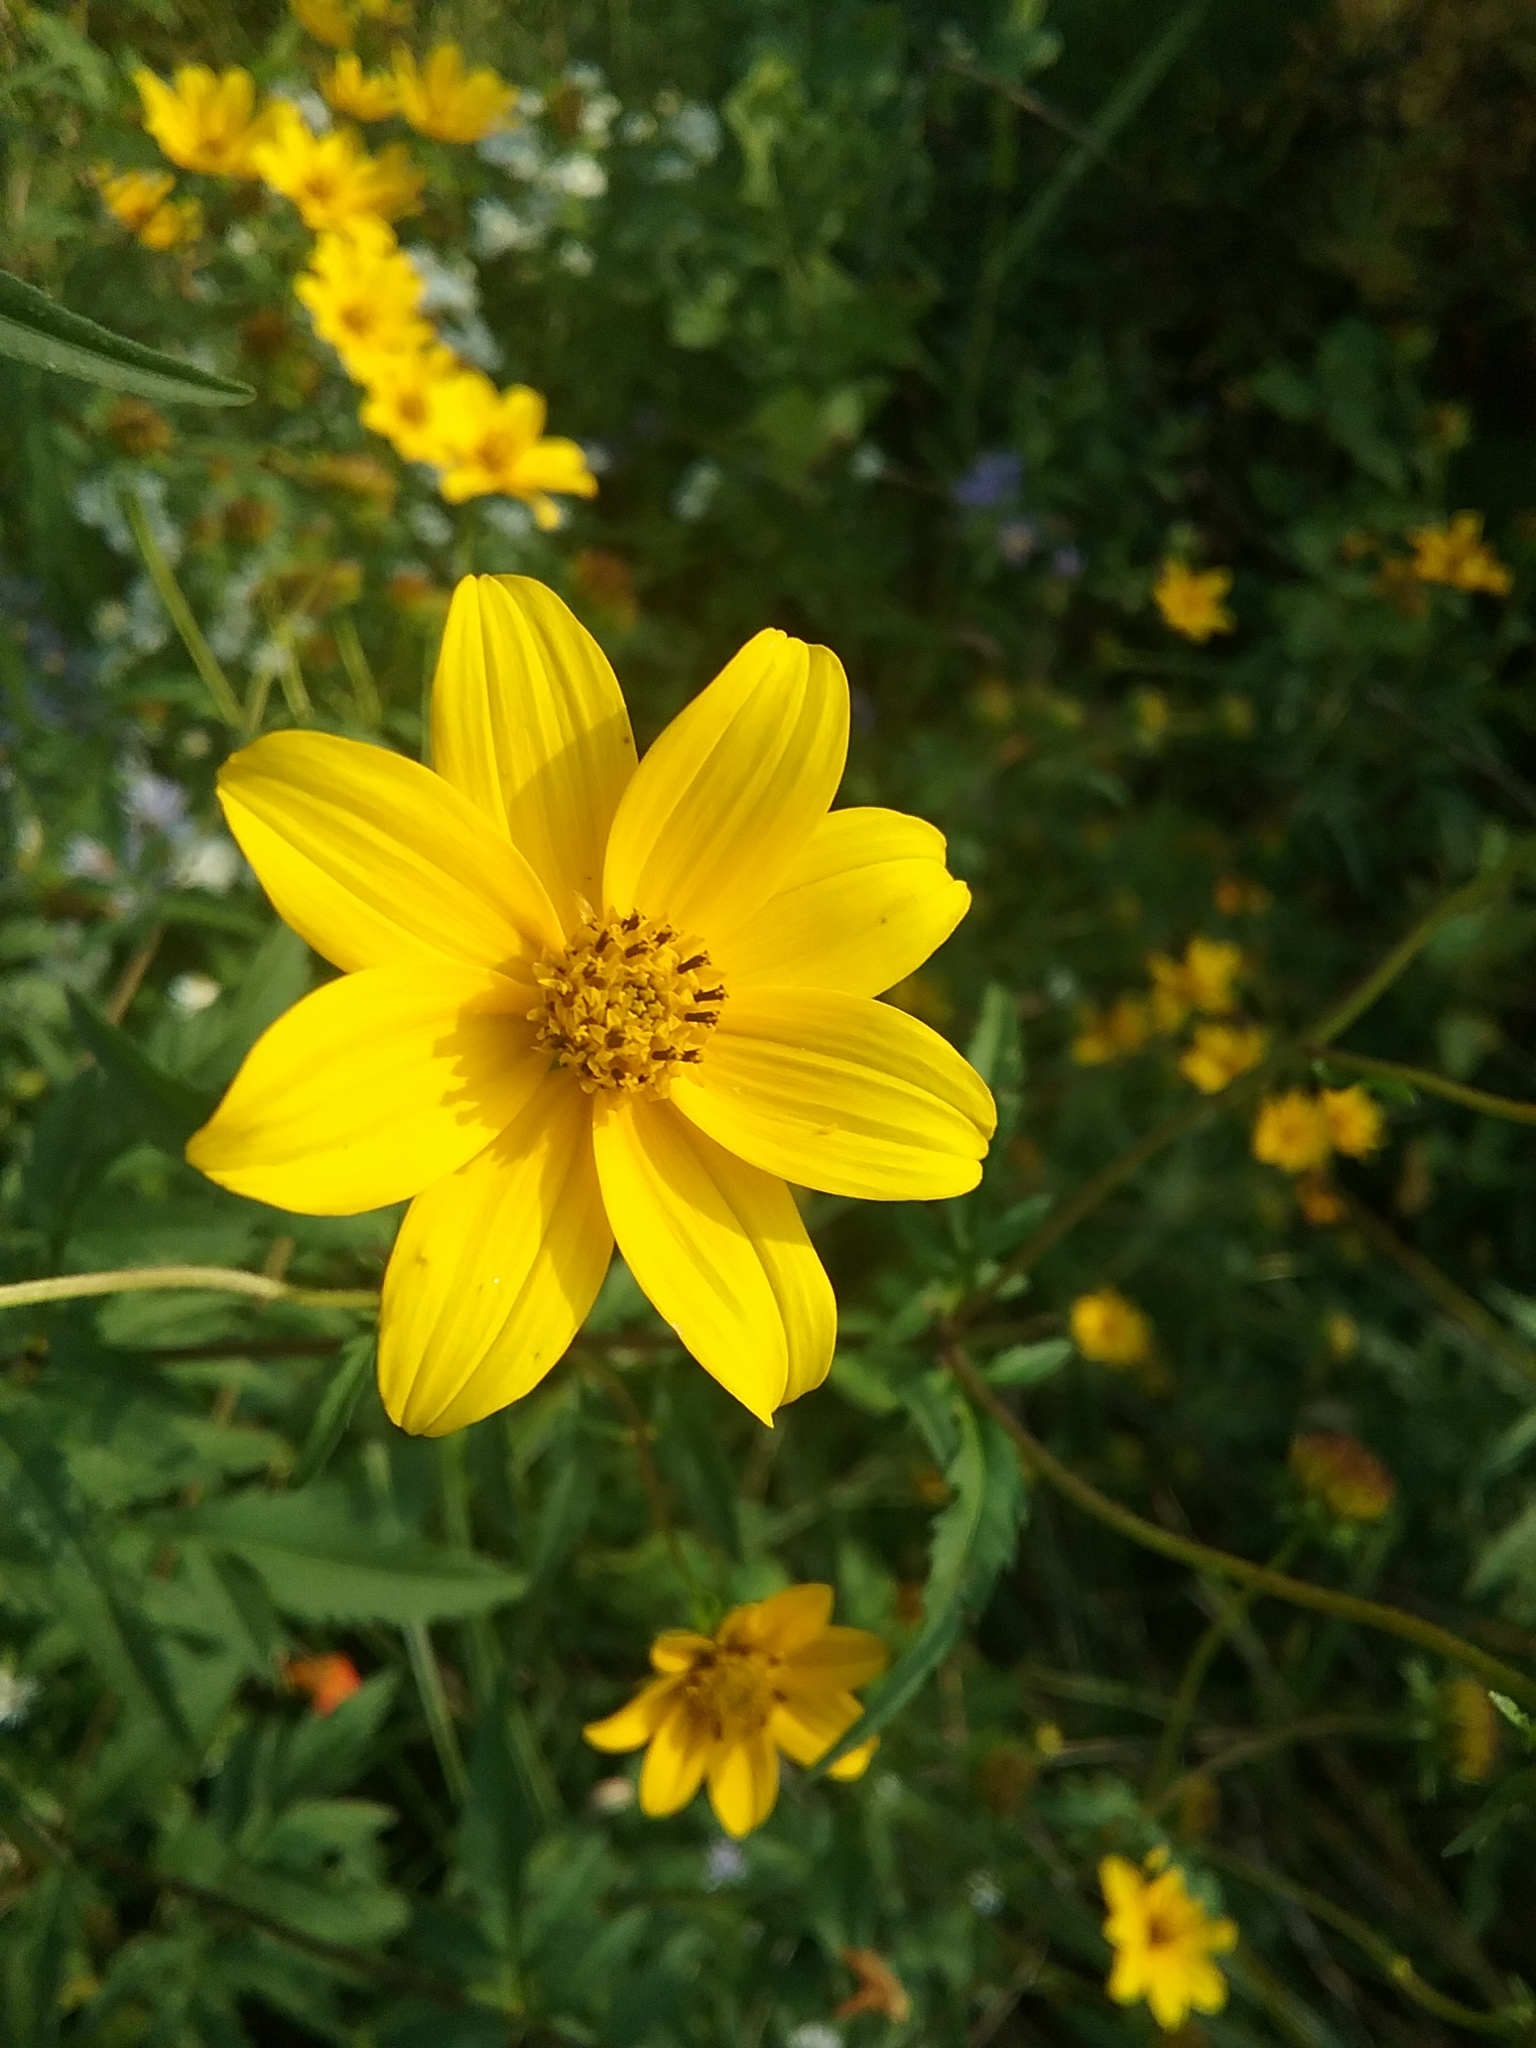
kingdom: Plantae
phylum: Tracheophyta
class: Magnoliopsida
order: Asterales
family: Asteraceae
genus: Bidens
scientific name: Bidens aristosa
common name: Western tickseed
